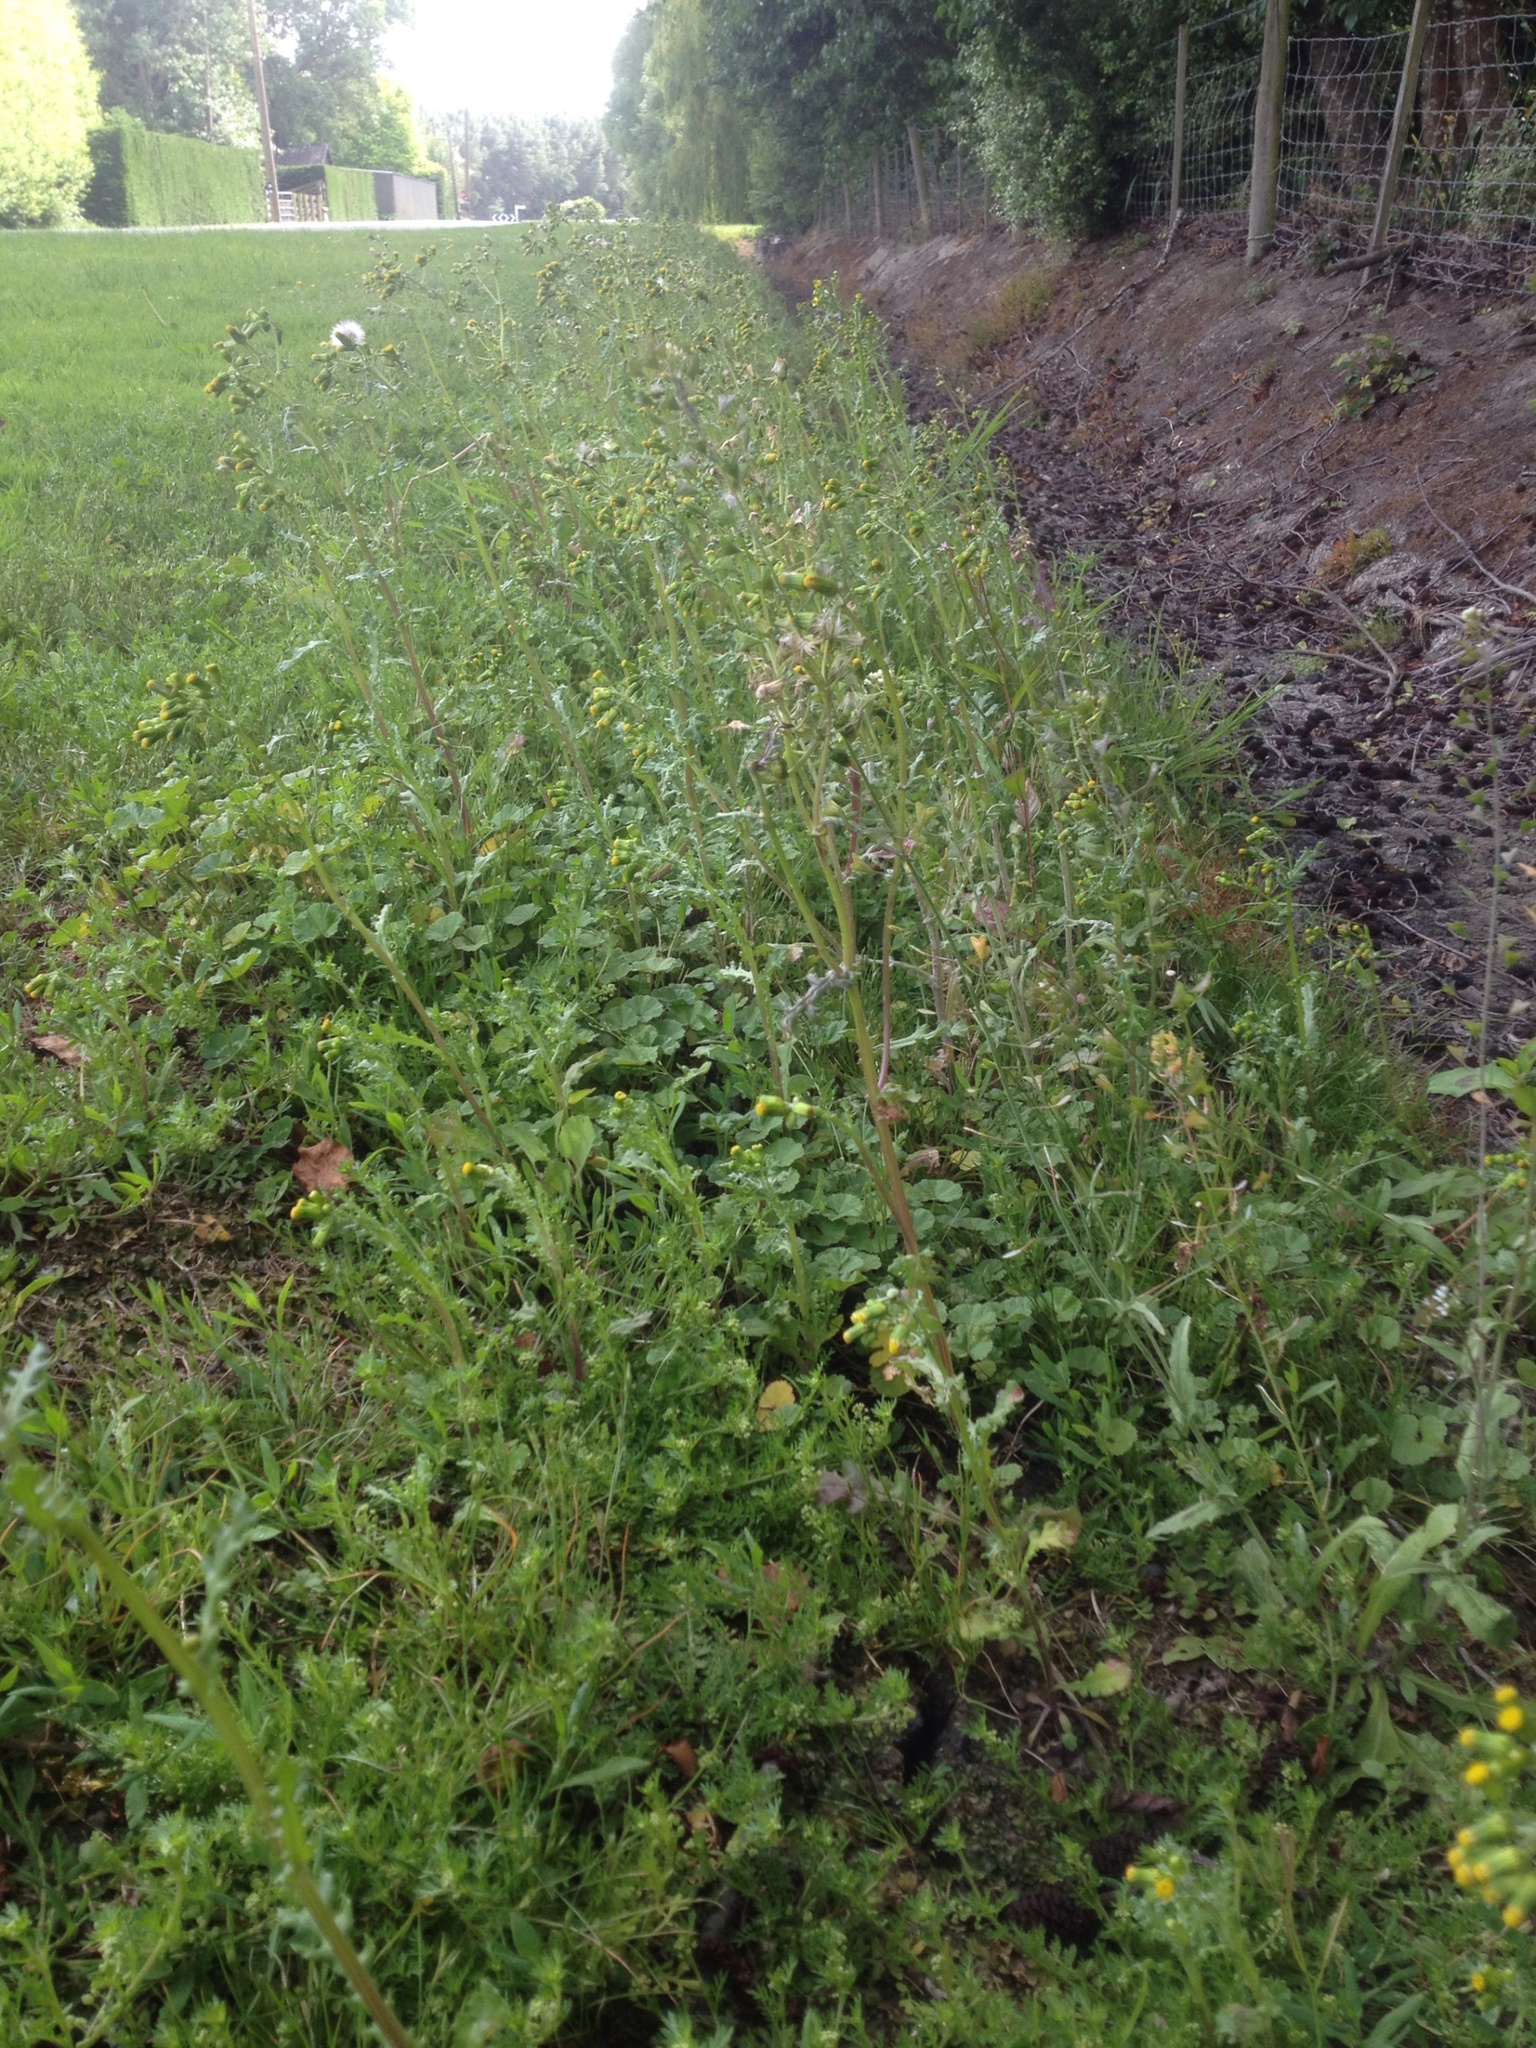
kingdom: Plantae
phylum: Tracheophyta
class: Magnoliopsida
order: Asterales
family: Asteraceae
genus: Senecio
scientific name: Senecio vulgaris
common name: Old-man-in-the-spring
